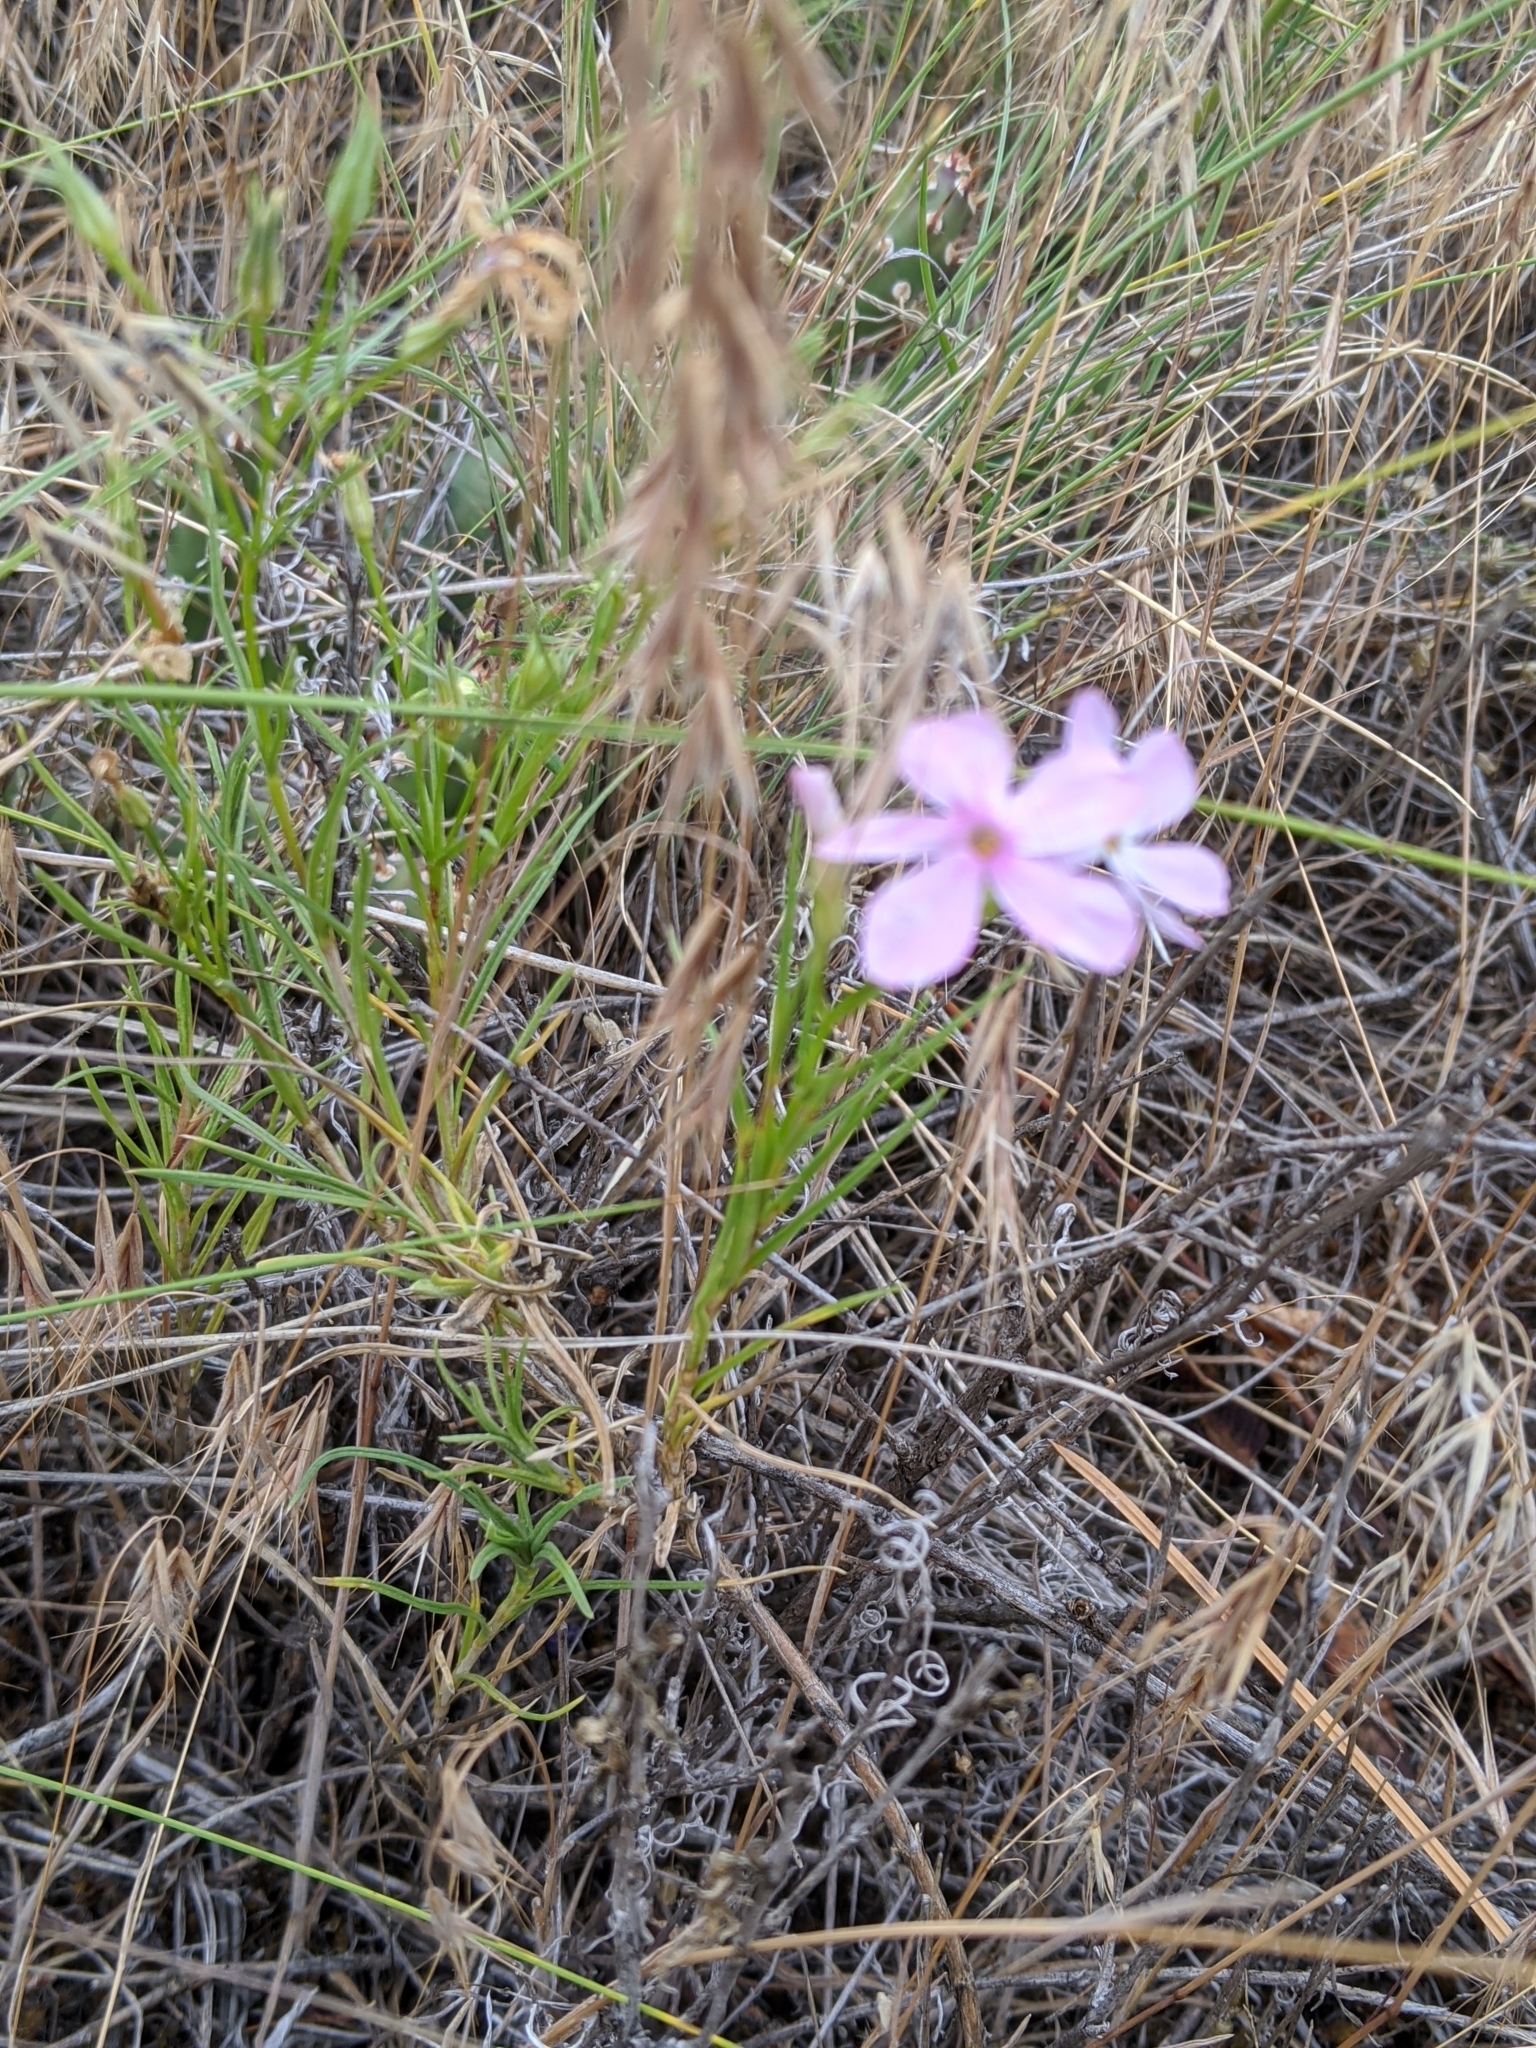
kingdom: Plantae
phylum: Tracheophyta
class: Magnoliopsida
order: Ericales
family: Polemoniaceae
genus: Phlox
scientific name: Phlox longifolia
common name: Longleaf phlox
